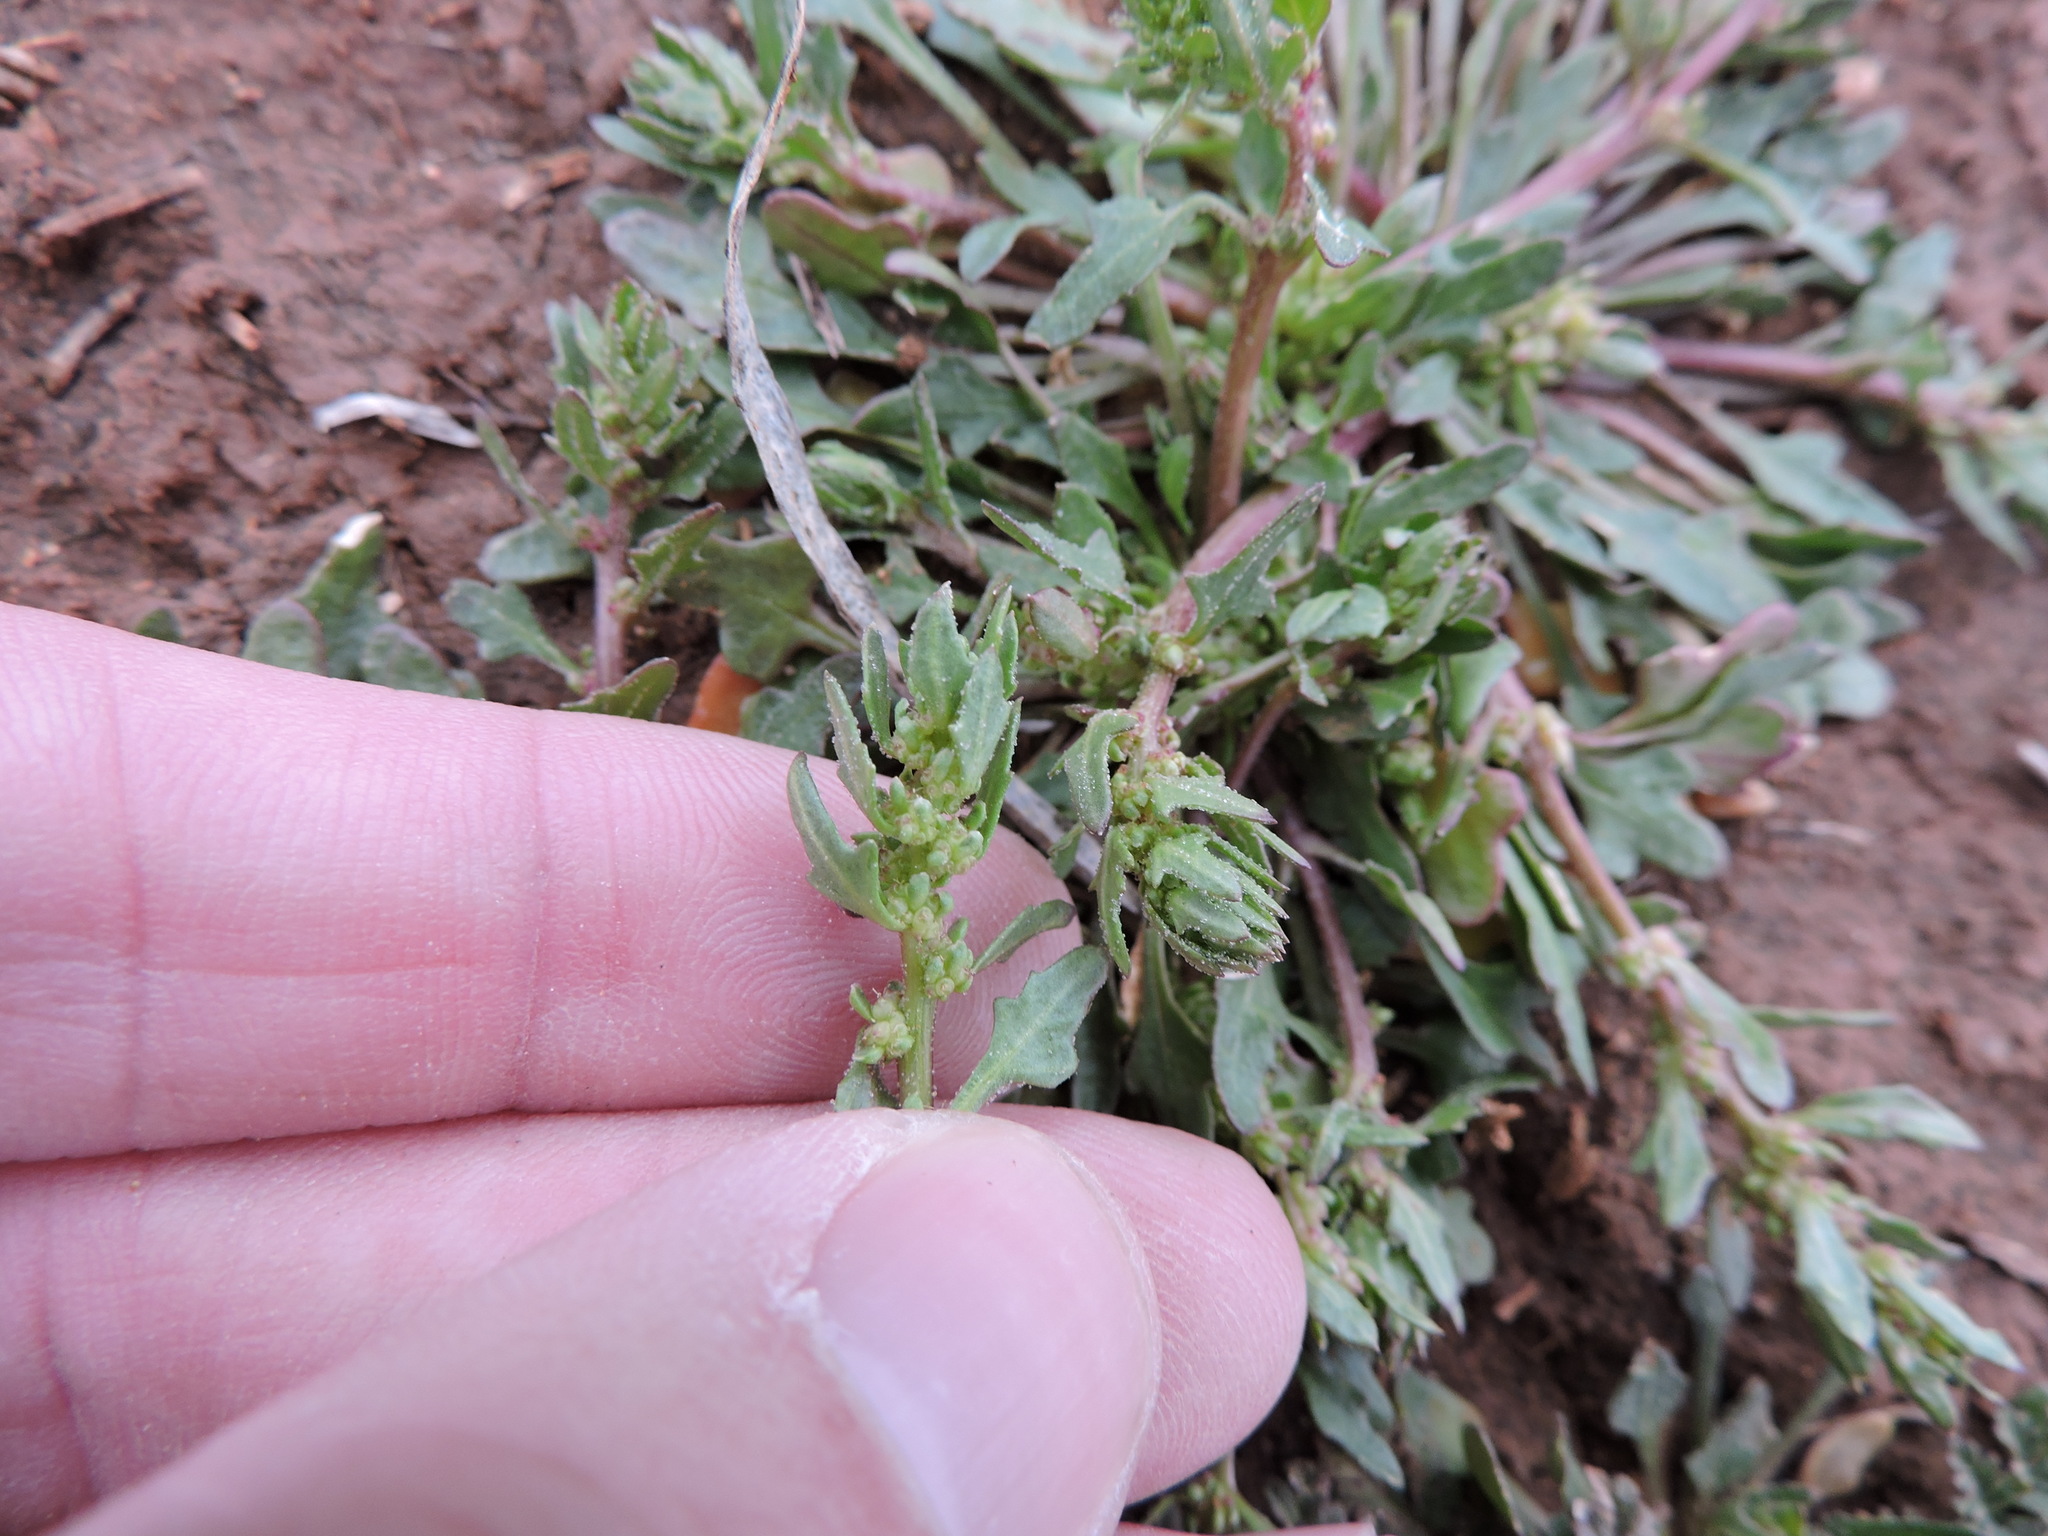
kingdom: Plantae
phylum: Tracheophyta
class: Magnoliopsida
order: Caryophyllales
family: Amaranthaceae
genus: Blitum
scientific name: Blitum nuttallianum
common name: Poverty-weed
